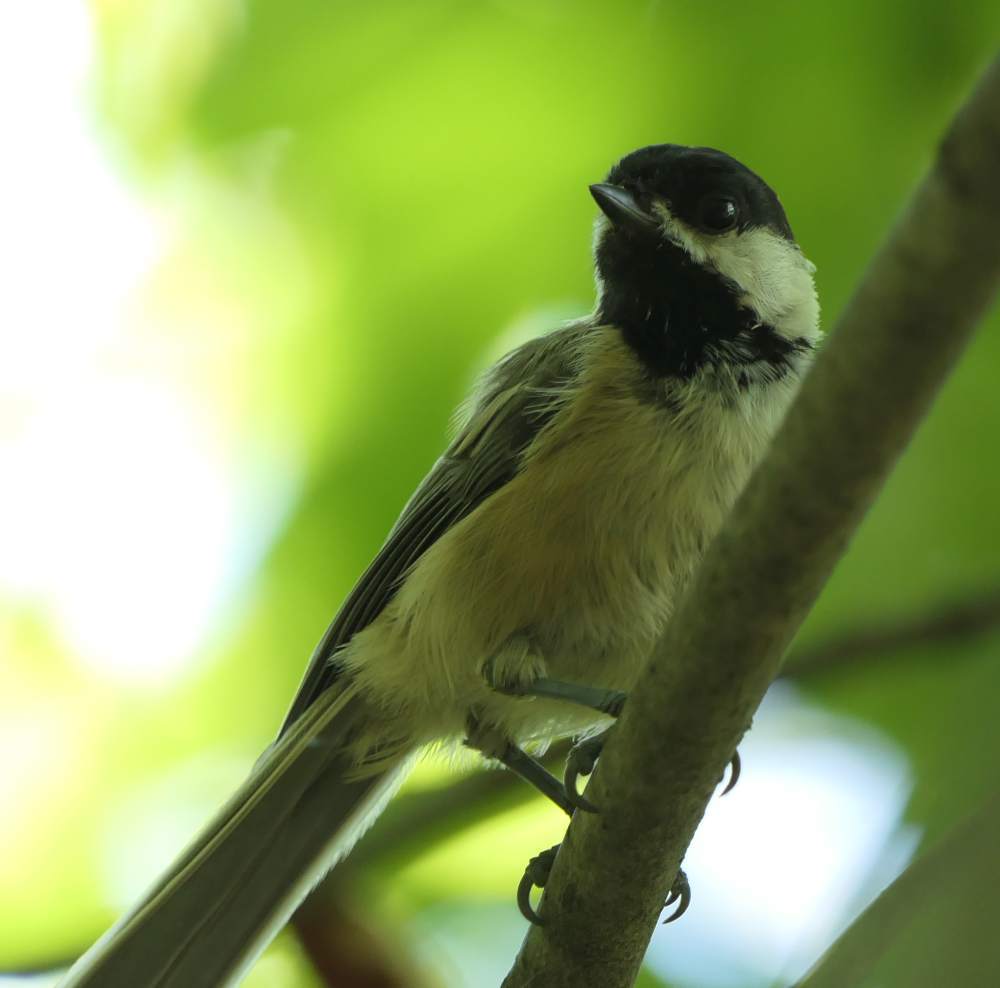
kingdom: Animalia
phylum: Chordata
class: Aves
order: Passeriformes
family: Paridae
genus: Poecile
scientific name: Poecile atricapillus
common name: Black-capped chickadee
